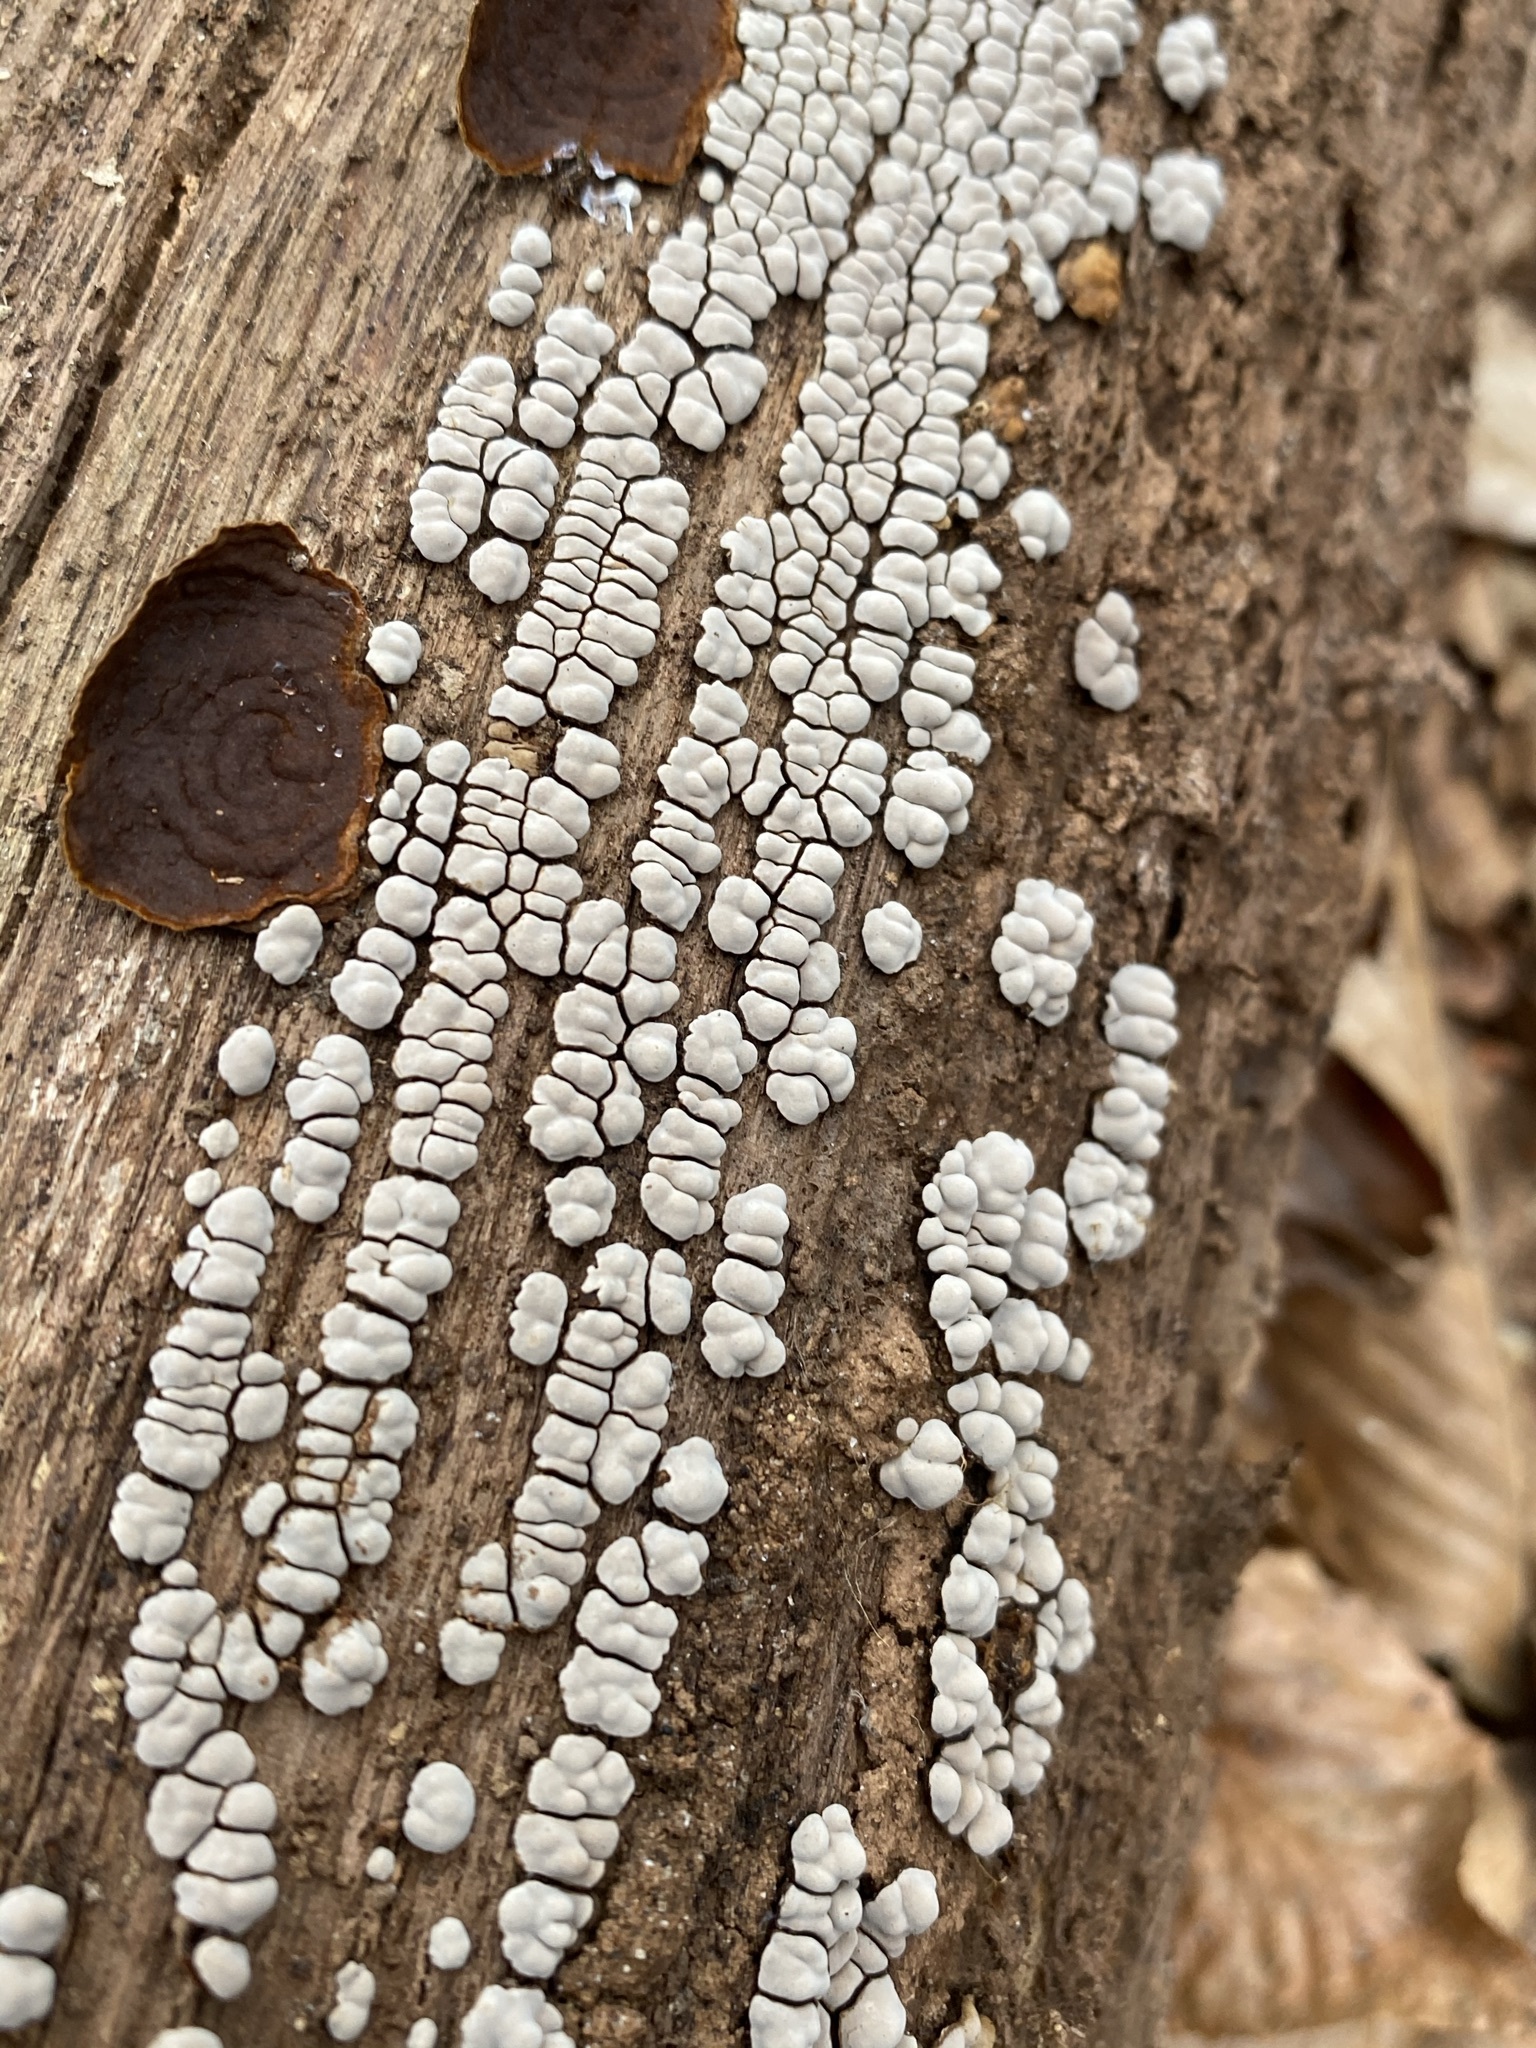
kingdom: Fungi
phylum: Basidiomycota
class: Agaricomycetes
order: Russulales
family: Stereaceae
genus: Xylobolus
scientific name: Xylobolus frustulatus
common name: Ceramic parchment
